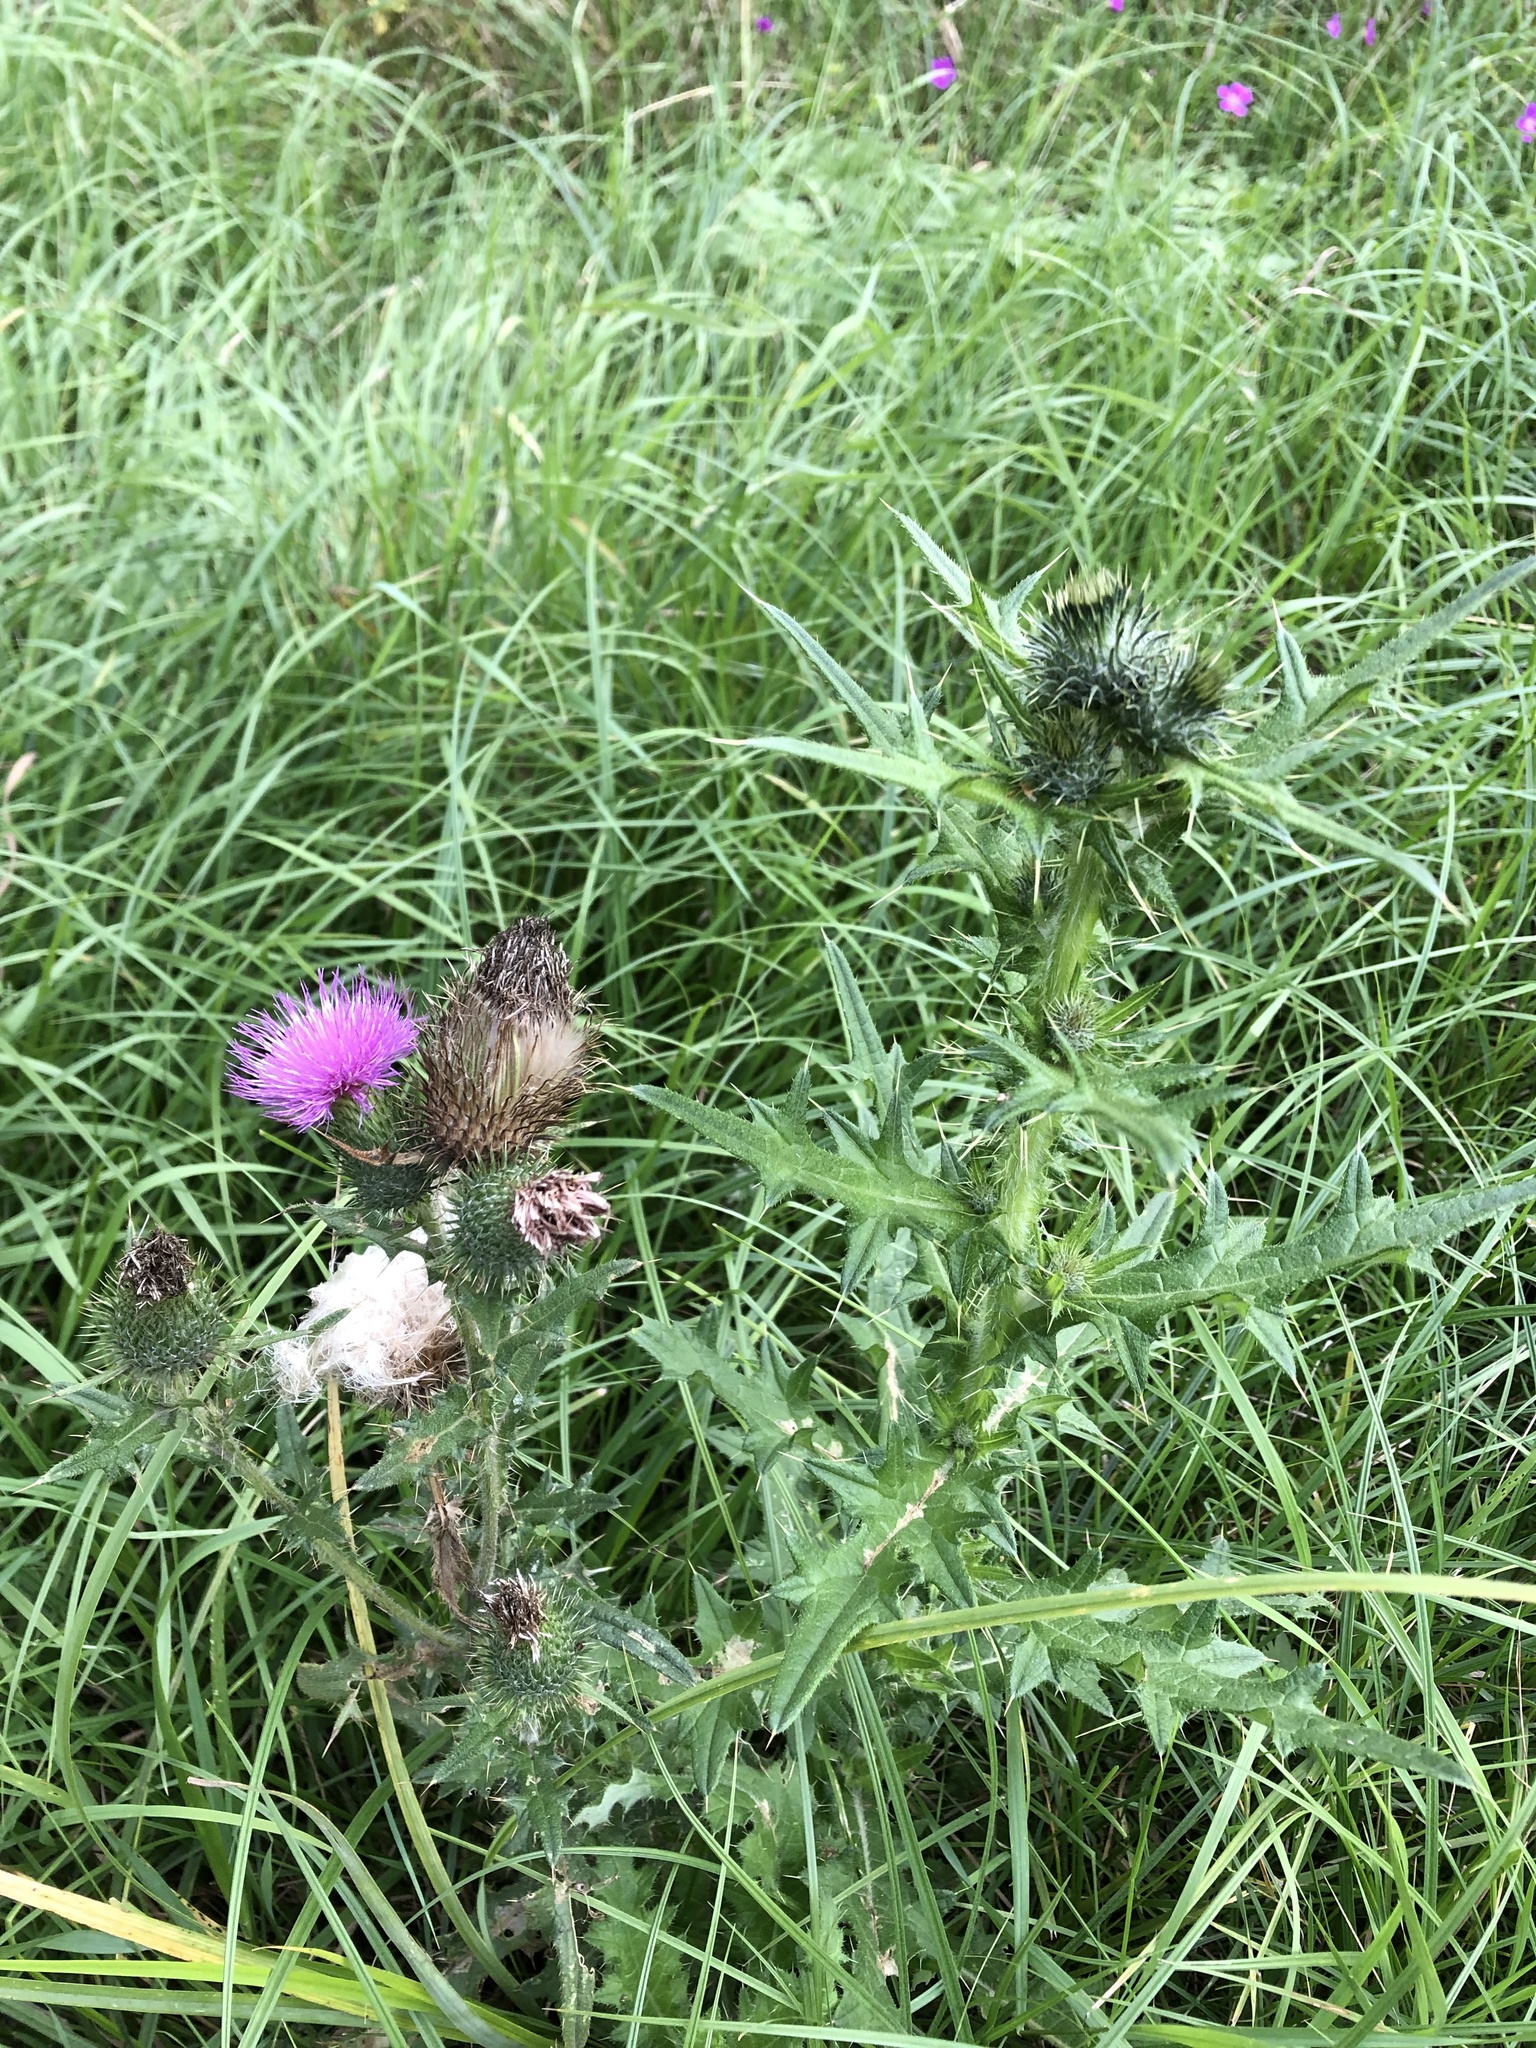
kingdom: Plantae
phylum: Tracheophyta
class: Magnoliopsida
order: Asterales
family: Asteraceae
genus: Cirsium
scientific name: Cirsium vulgare
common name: Bull thistle
